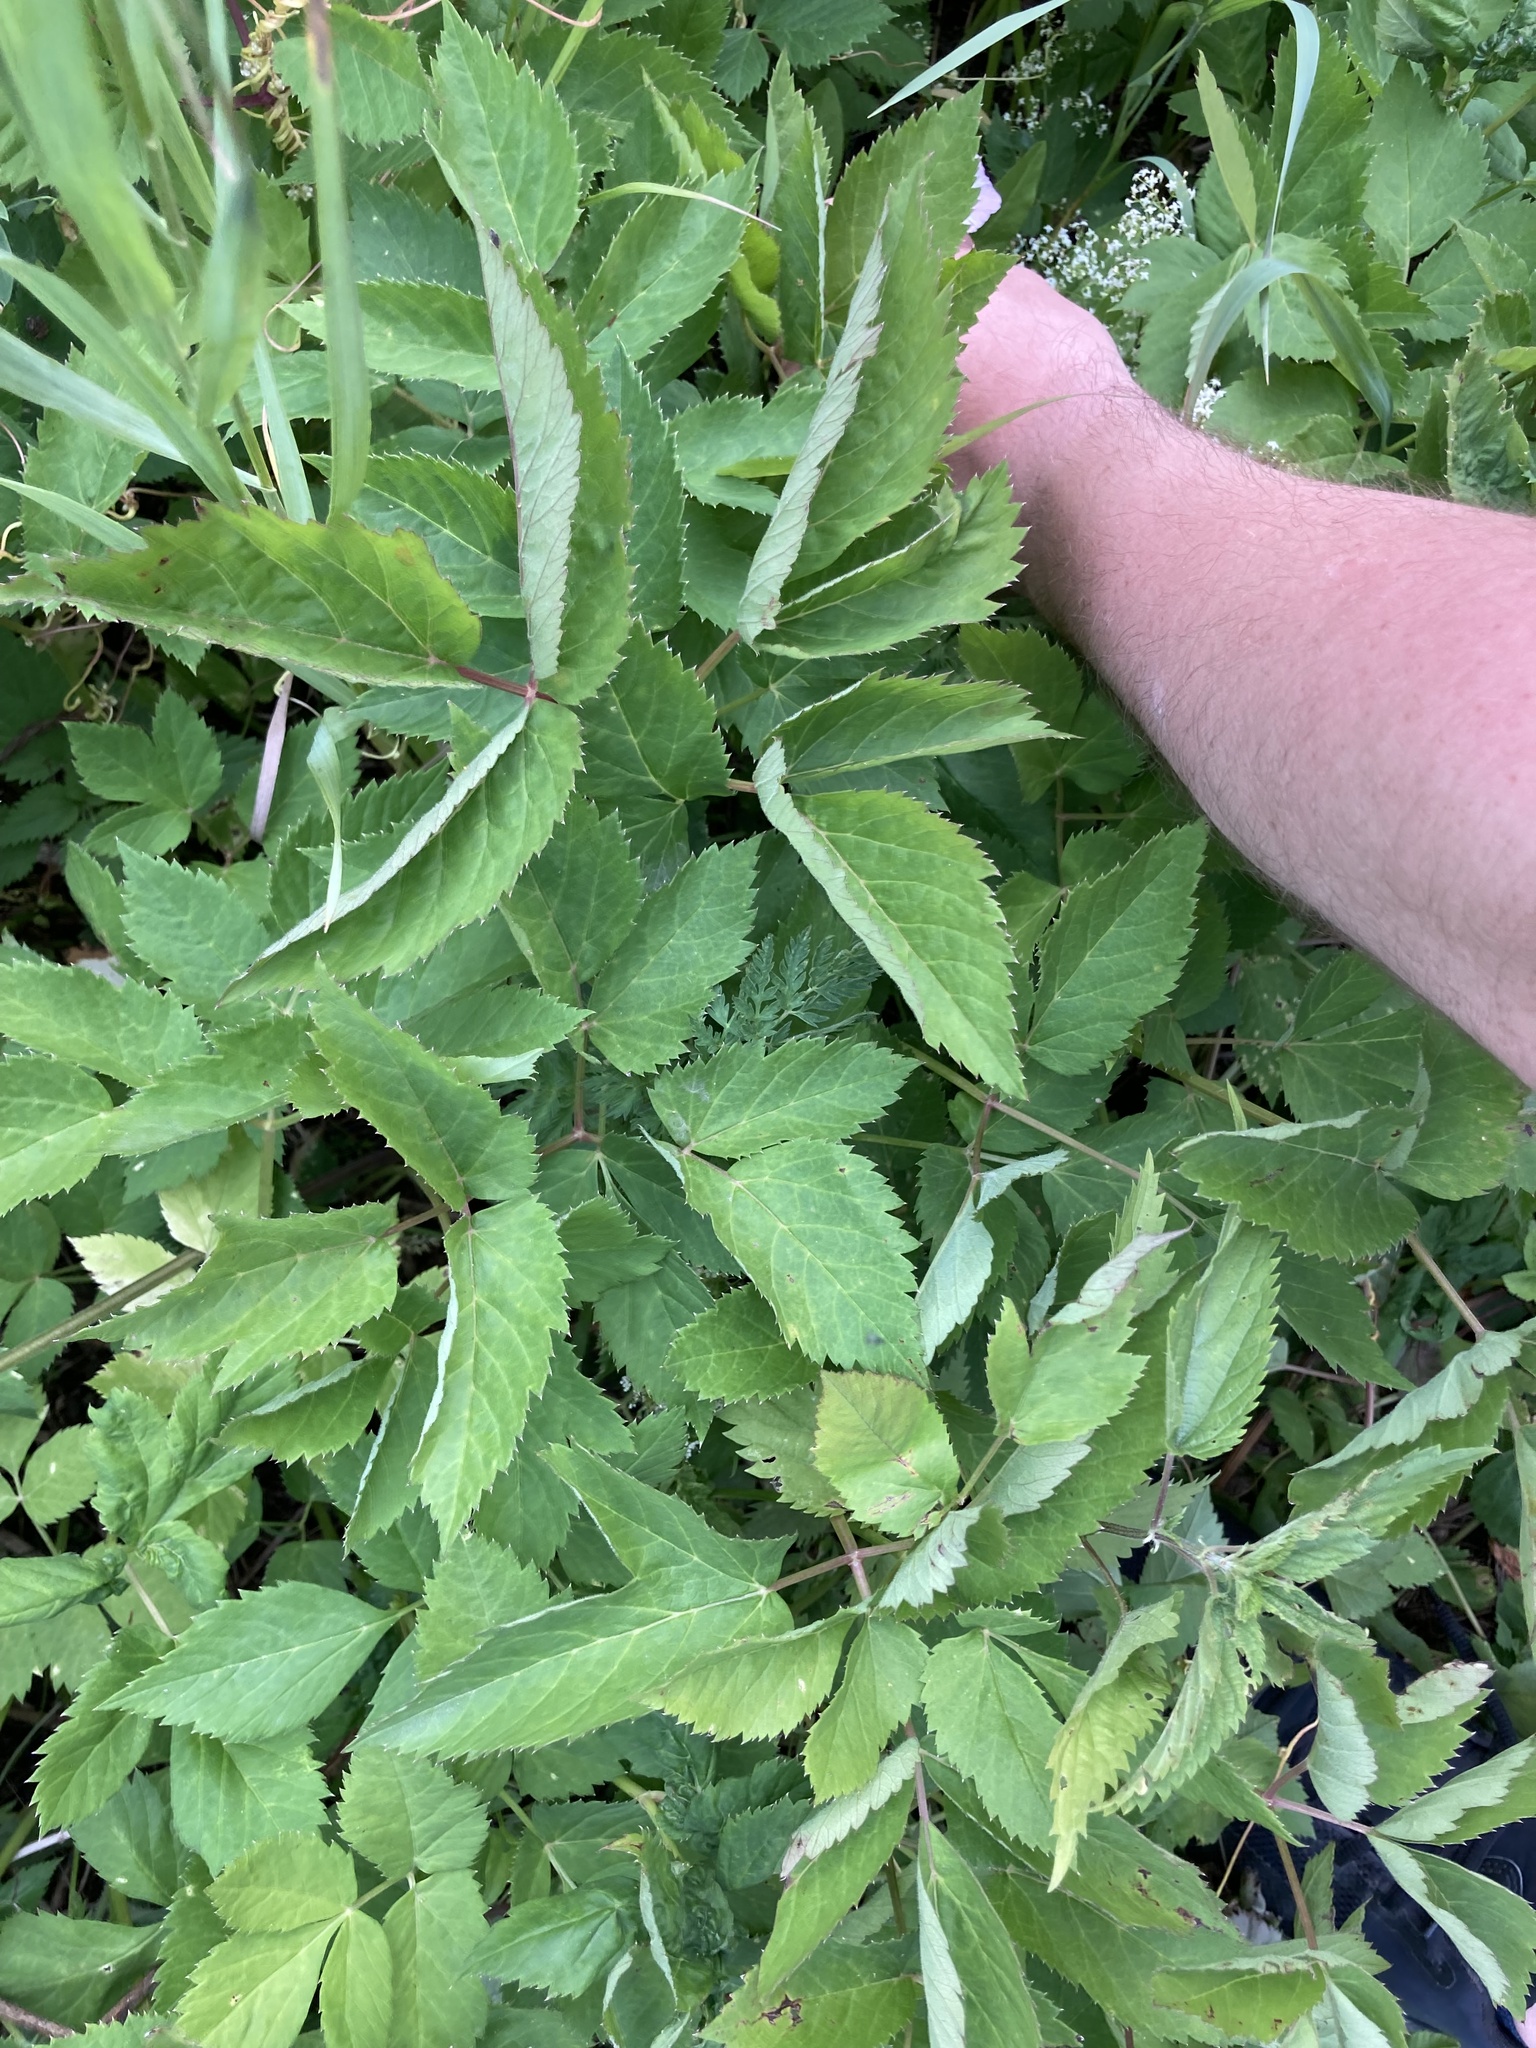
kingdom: Plantae
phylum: Tracheophyta
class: Magnoliopsida
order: Apiales
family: Apiaceae
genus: Aegopodium
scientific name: Aegopodium podagraria
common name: Ground-elder
